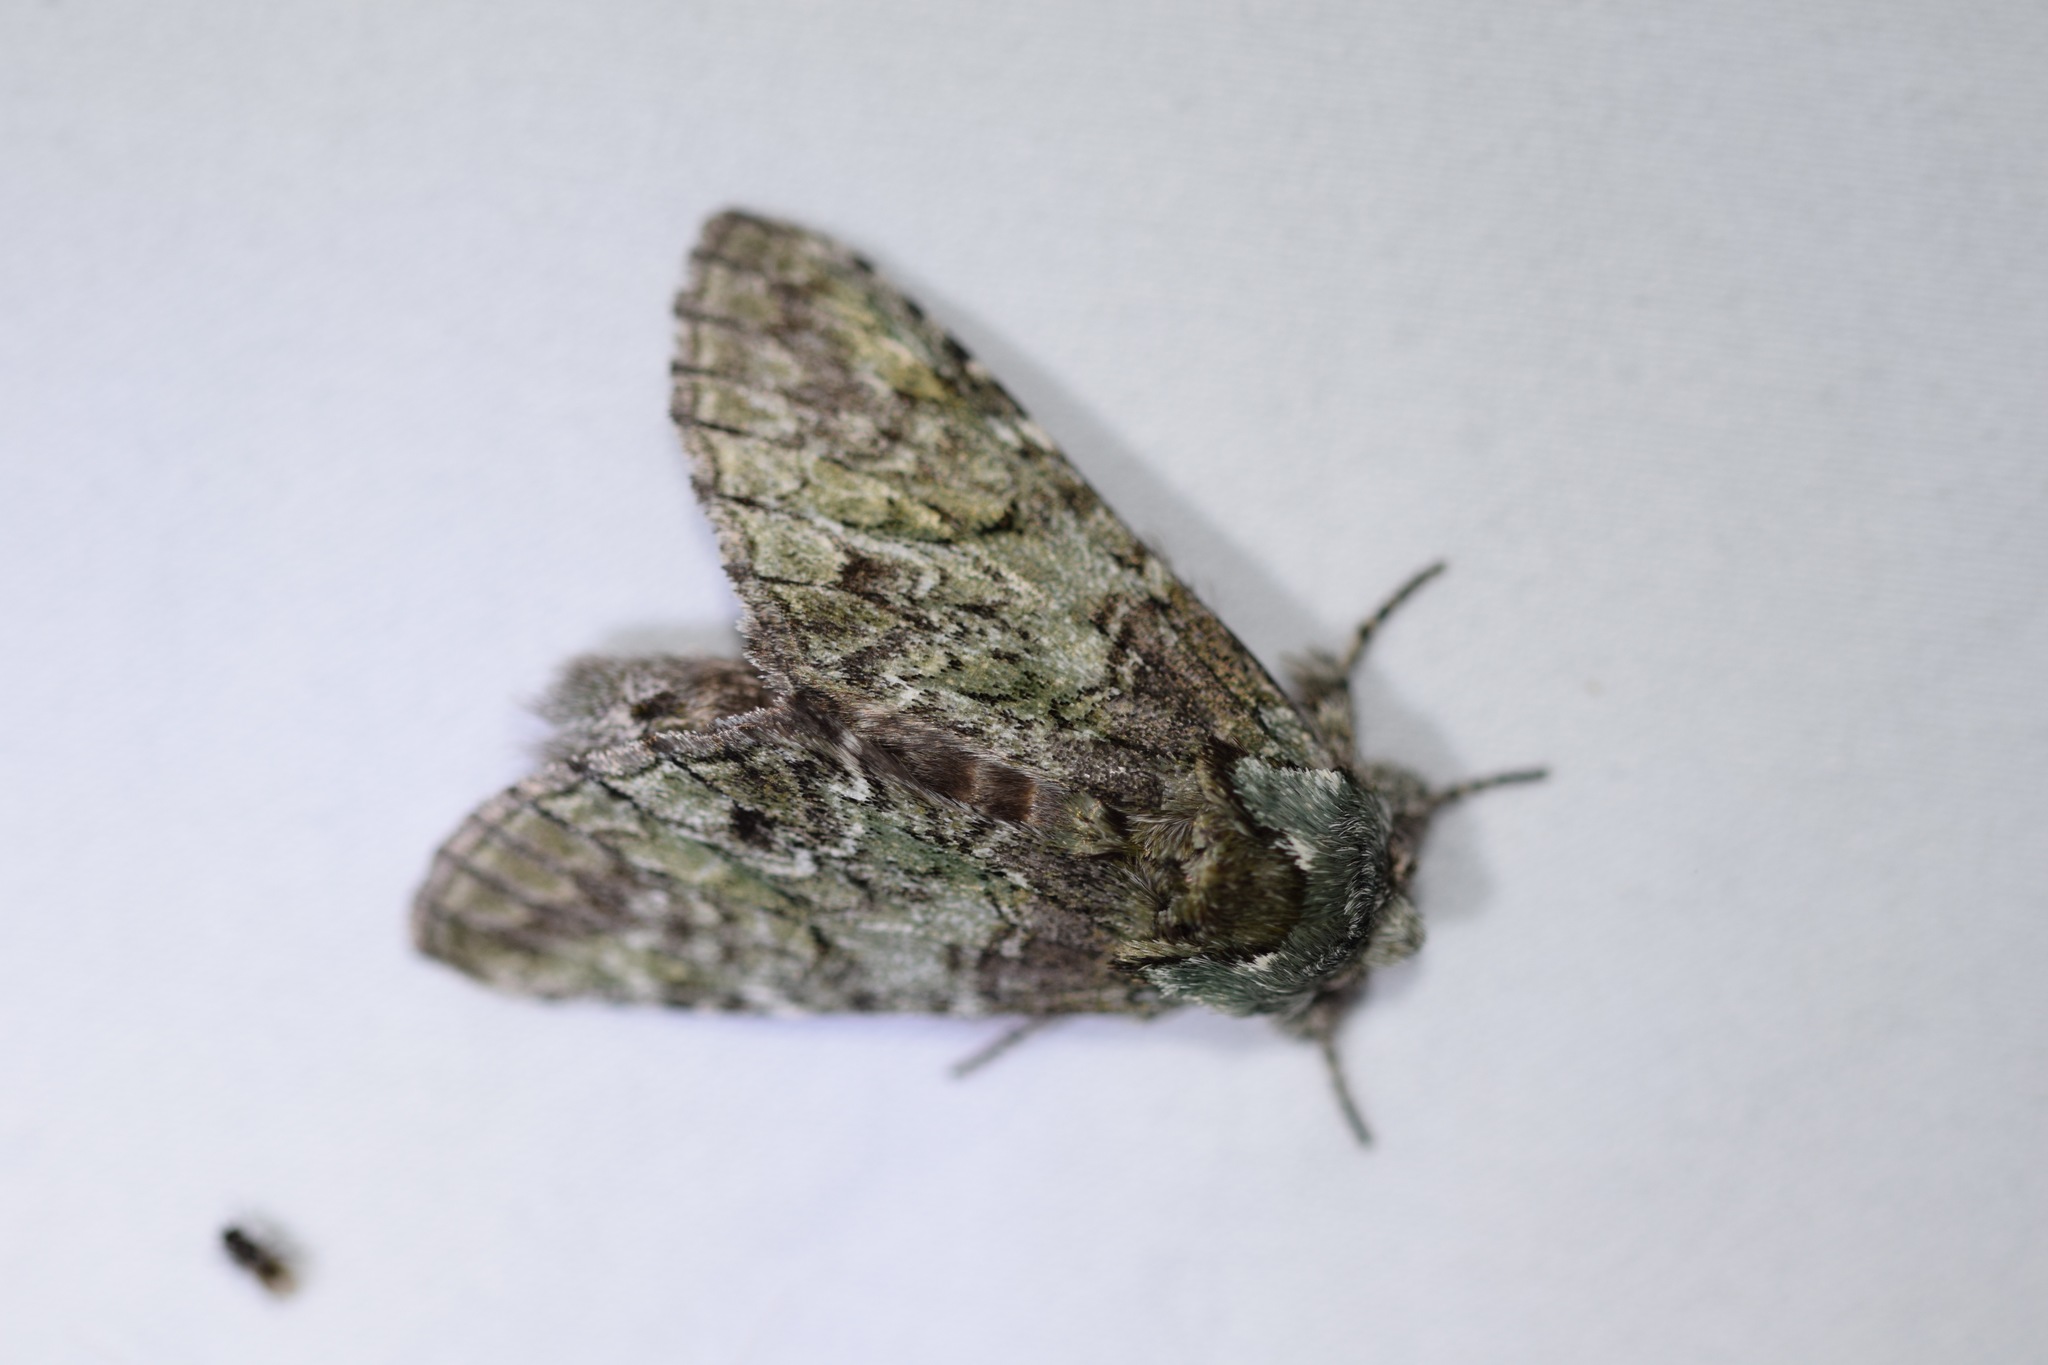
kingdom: Animalia
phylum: Arthropoda
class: Insecta
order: Lepidoptera
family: Notodontidae
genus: Macrurocampa
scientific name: Macrurocampa marthesia
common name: Mottled prominent
